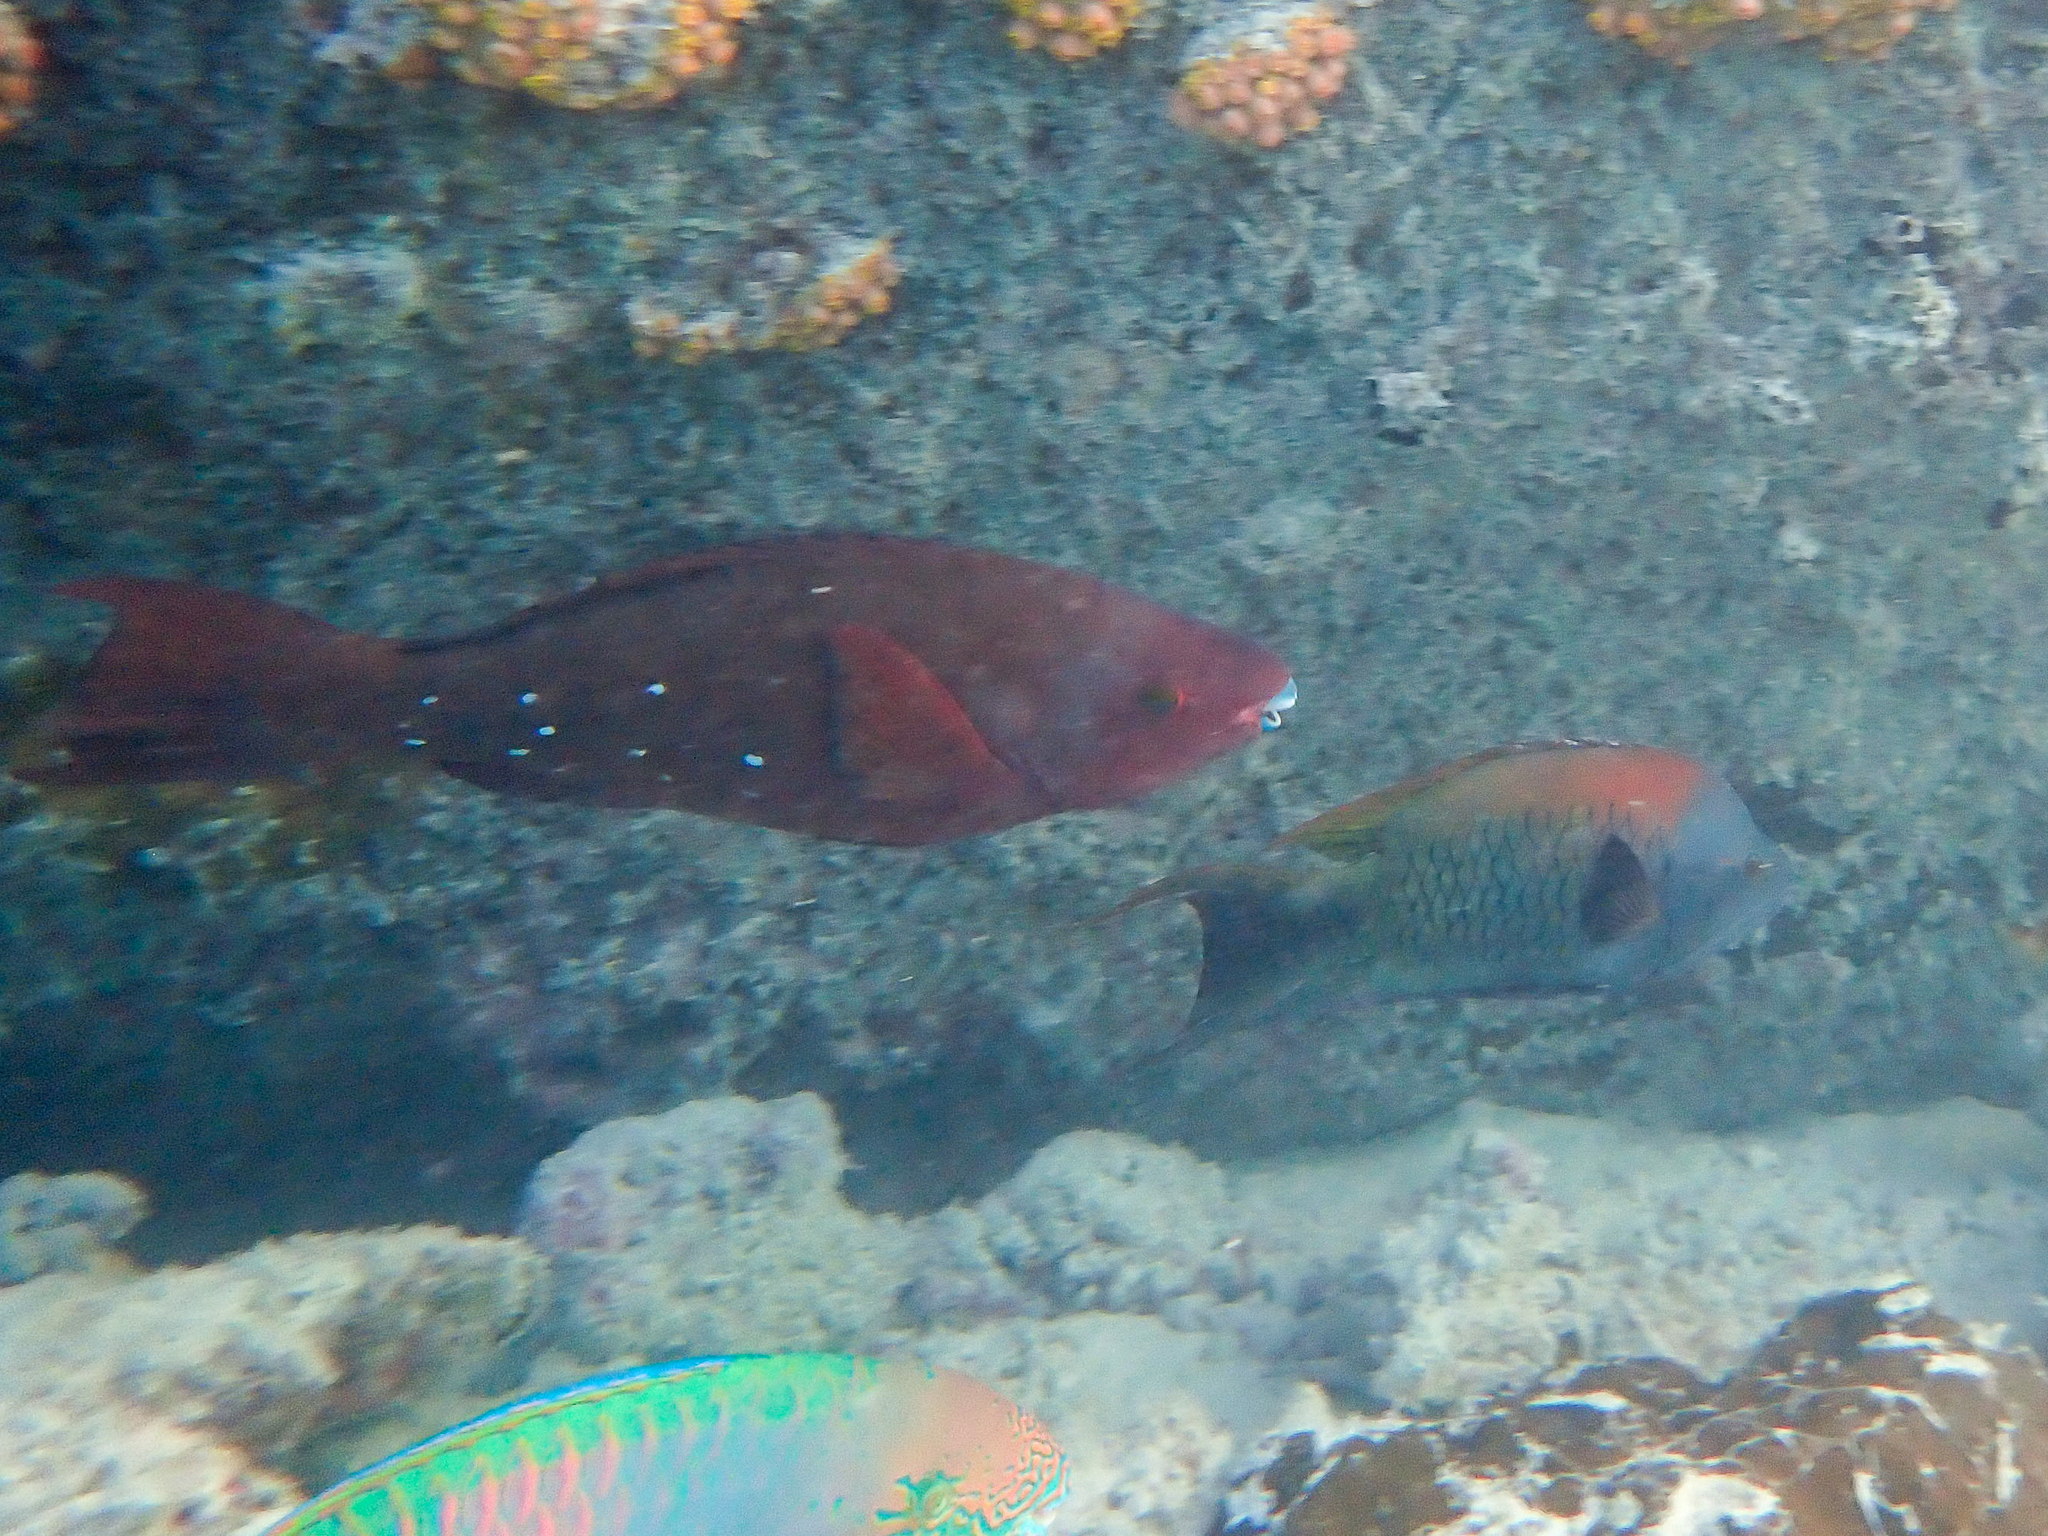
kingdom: Animalia
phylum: Chordata
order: Perciformes
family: Scaridae
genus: Scarus
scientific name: Scarus altipinnis
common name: Minifin parrotfish
